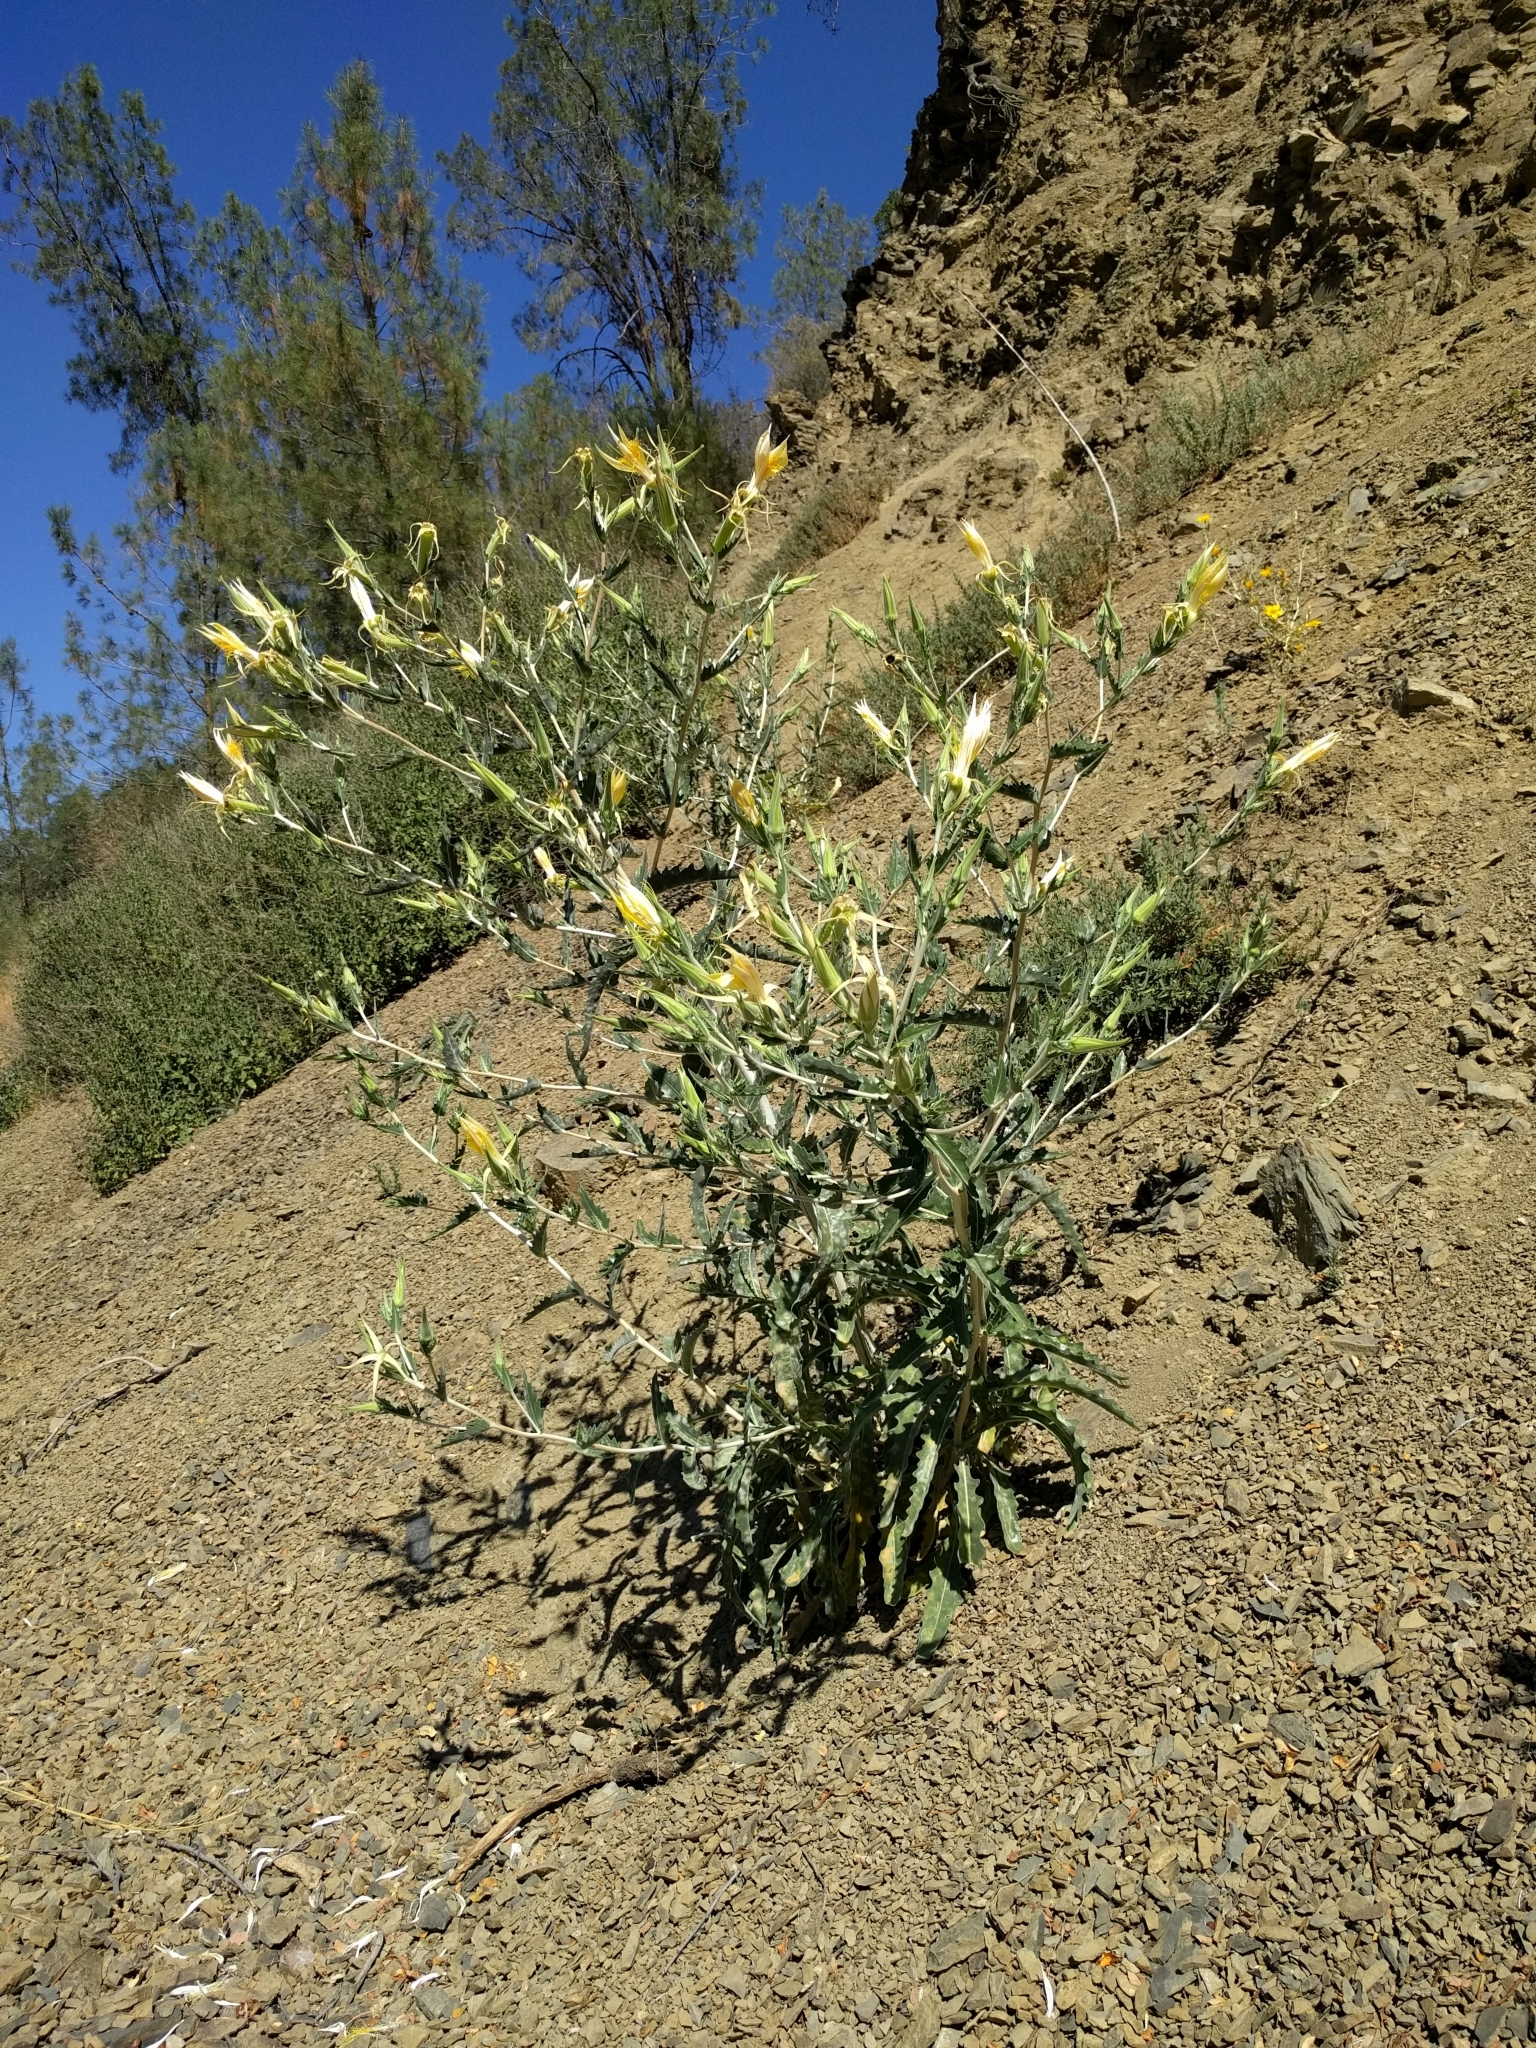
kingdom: Plantae
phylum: Tracheophyta
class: Magnoliopsida
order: Cornales
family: Loasaceae
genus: Mentzelia
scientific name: Mentzelia laevicaulis
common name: Smooth-stem blazingstar
